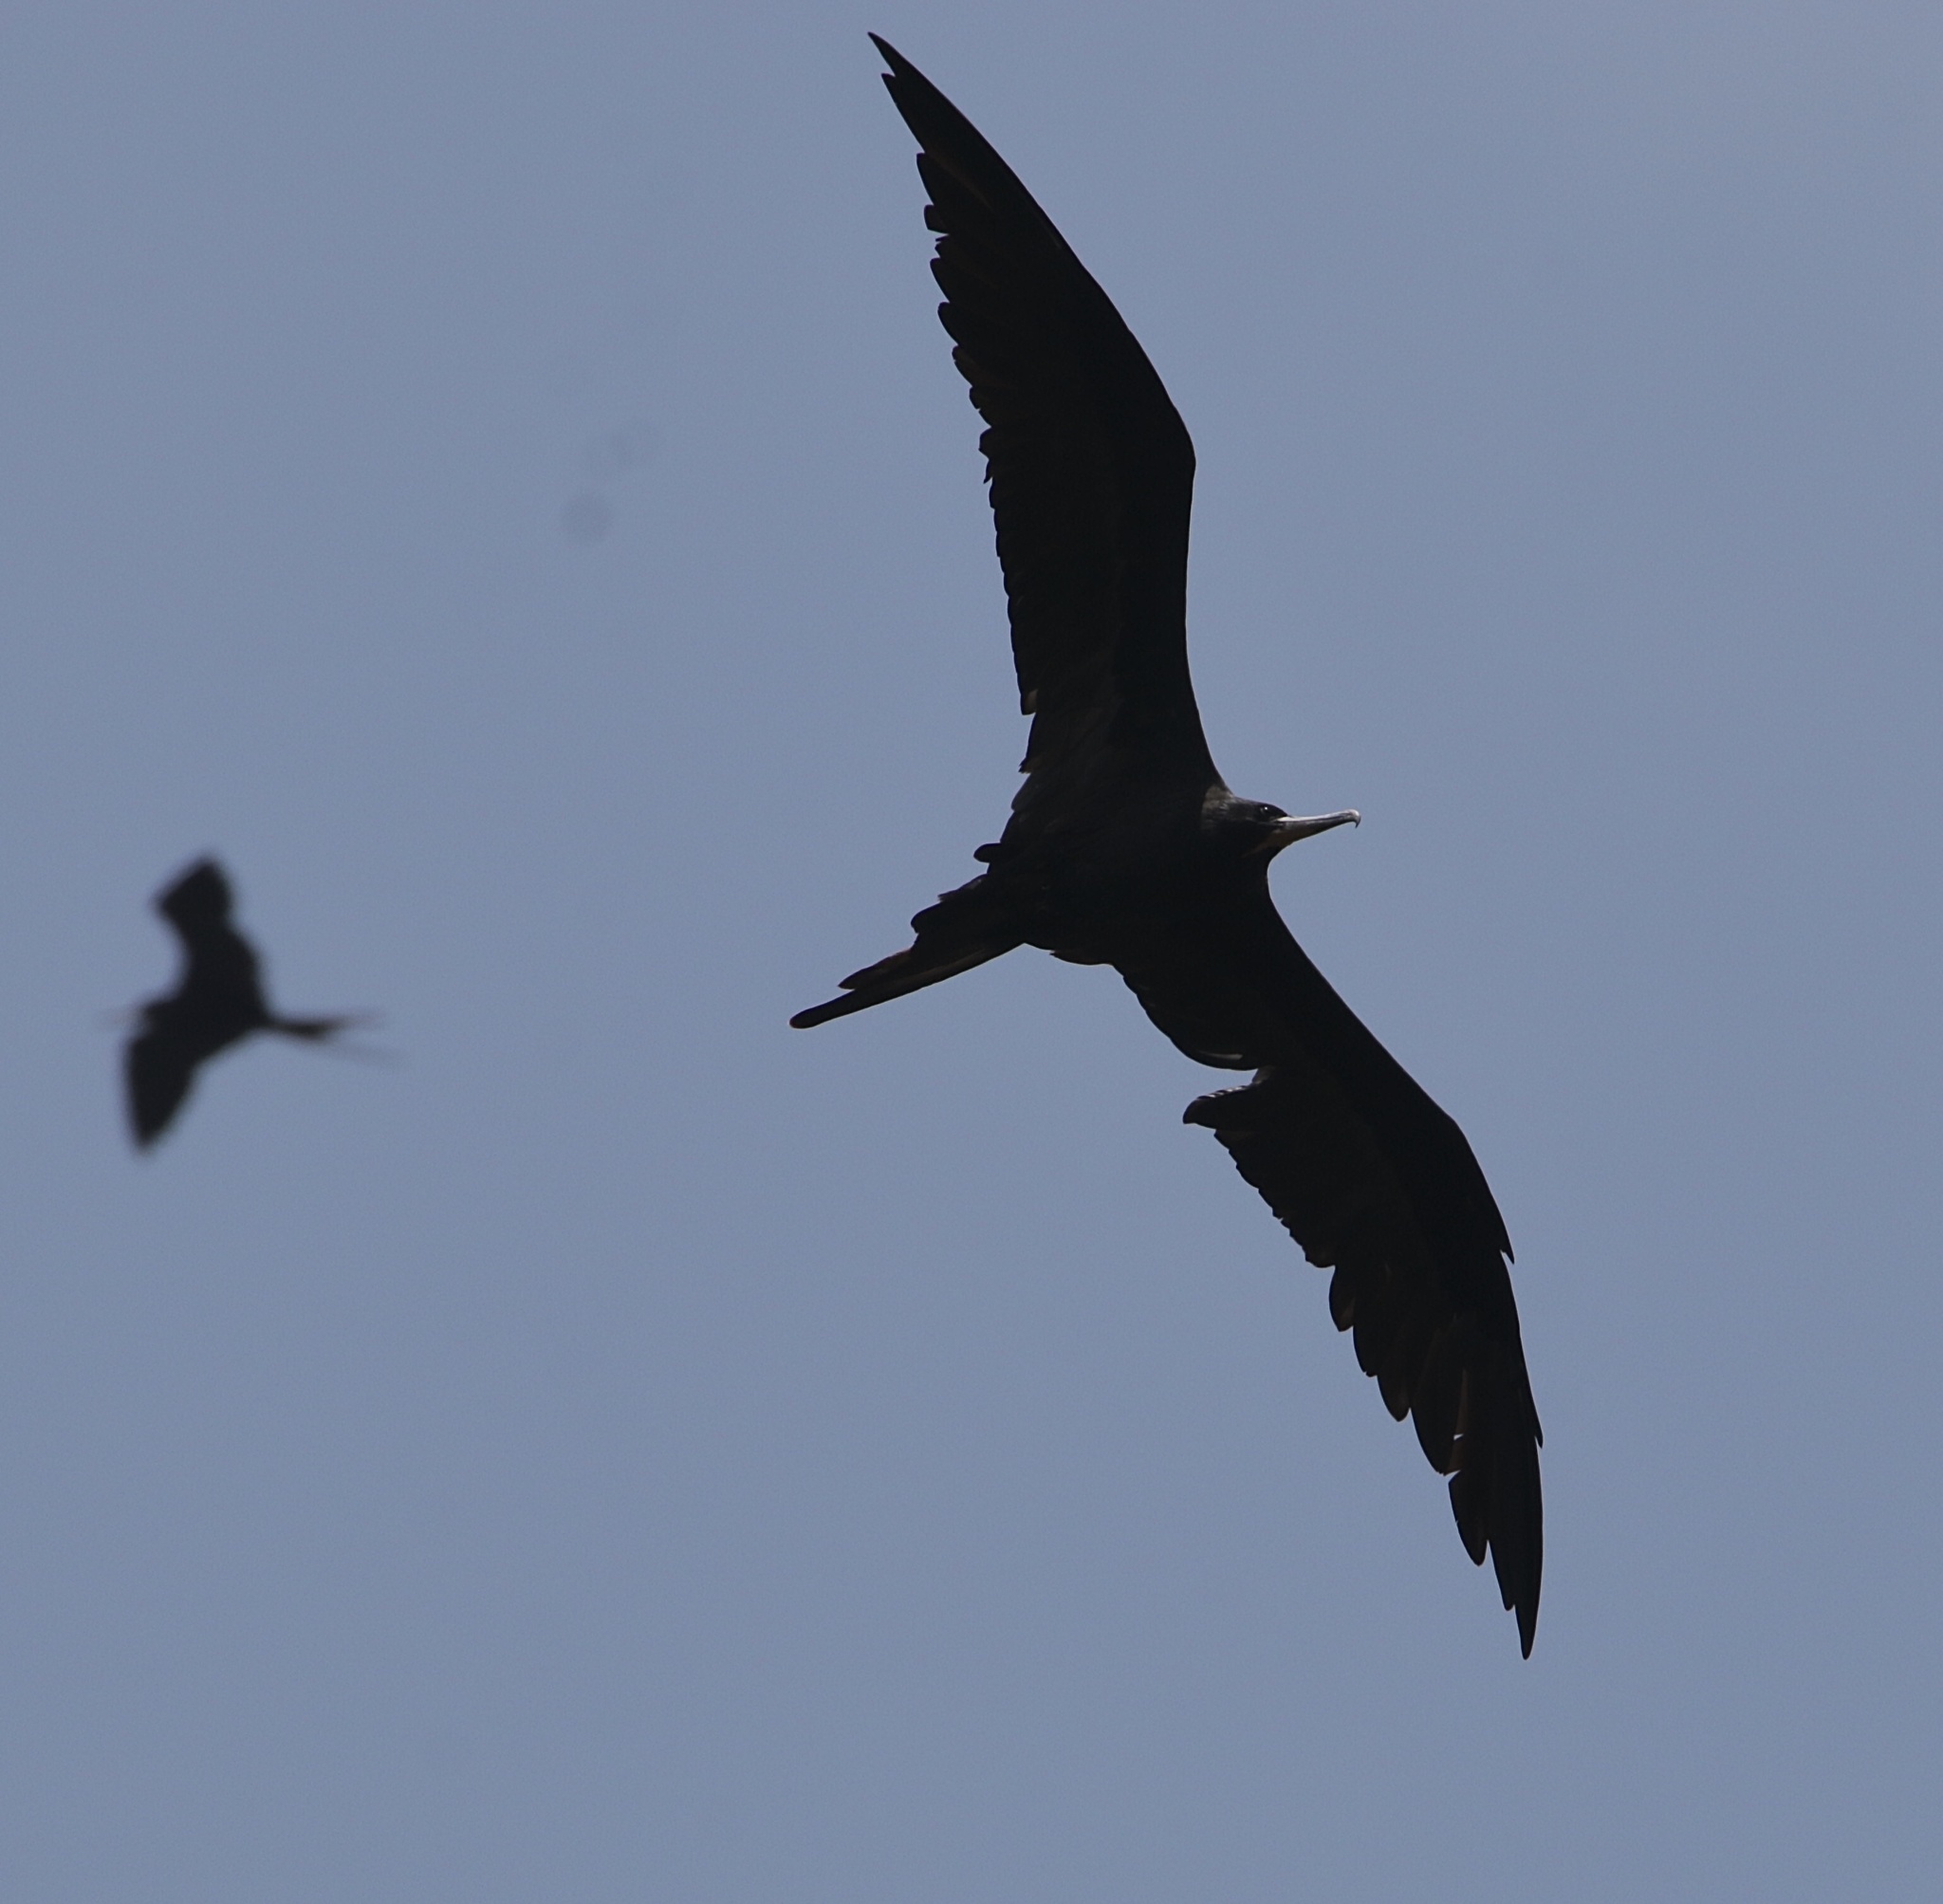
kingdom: Animalia
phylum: Chordata
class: Aves
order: Suliformes
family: Fregatidae
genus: Fregata
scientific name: Fregata magnificens
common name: Magnificent frigatebird
